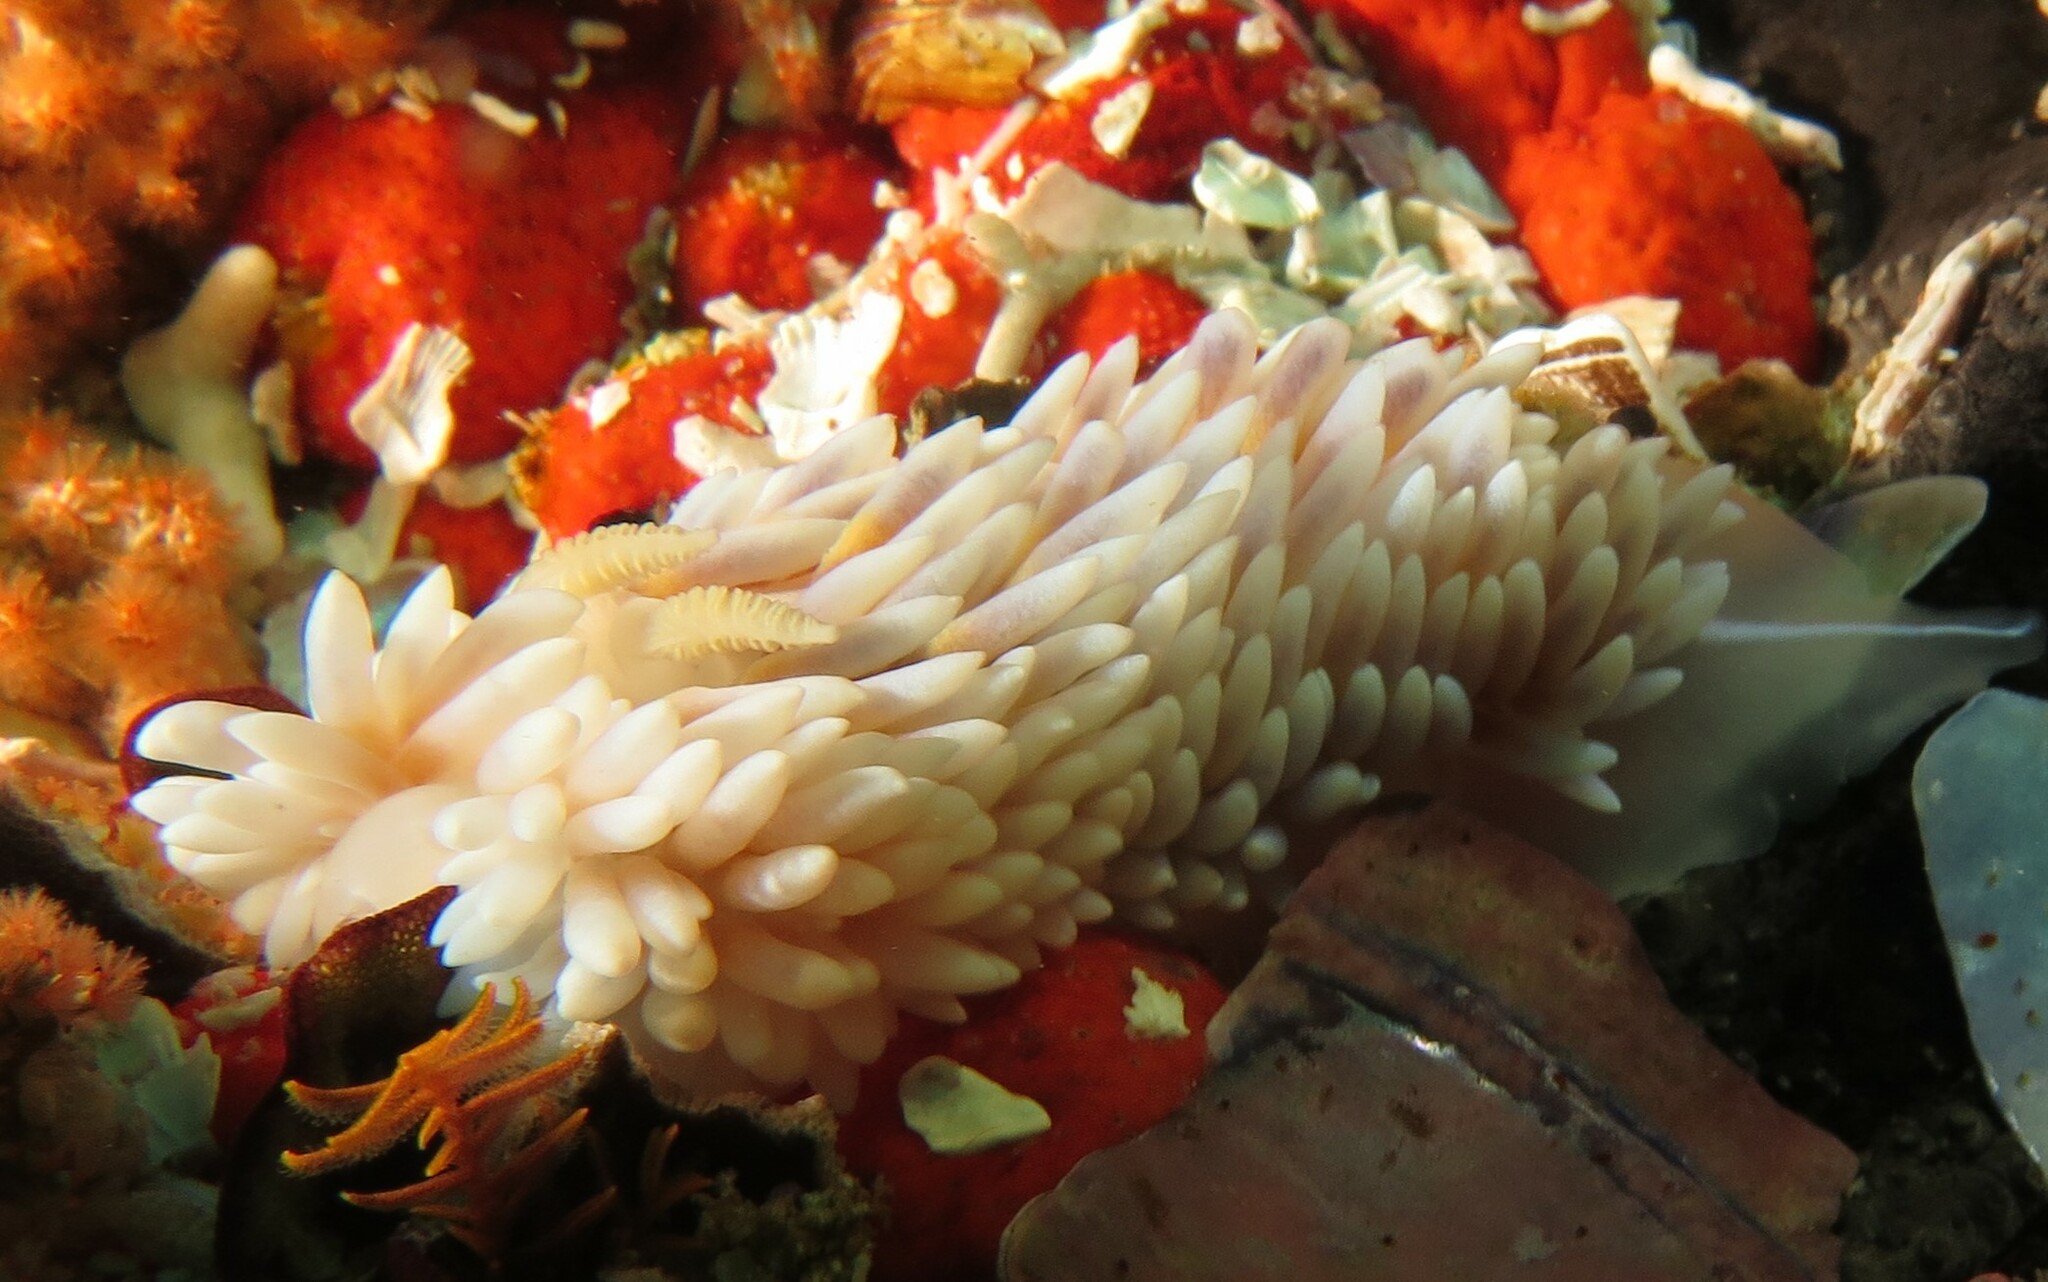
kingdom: Animalia
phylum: Mollusca
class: Gastropoda
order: Nudibranchia
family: Janolidae
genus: Bonisa
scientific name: Bonisa nakaza
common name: Gas flame nudibranch
